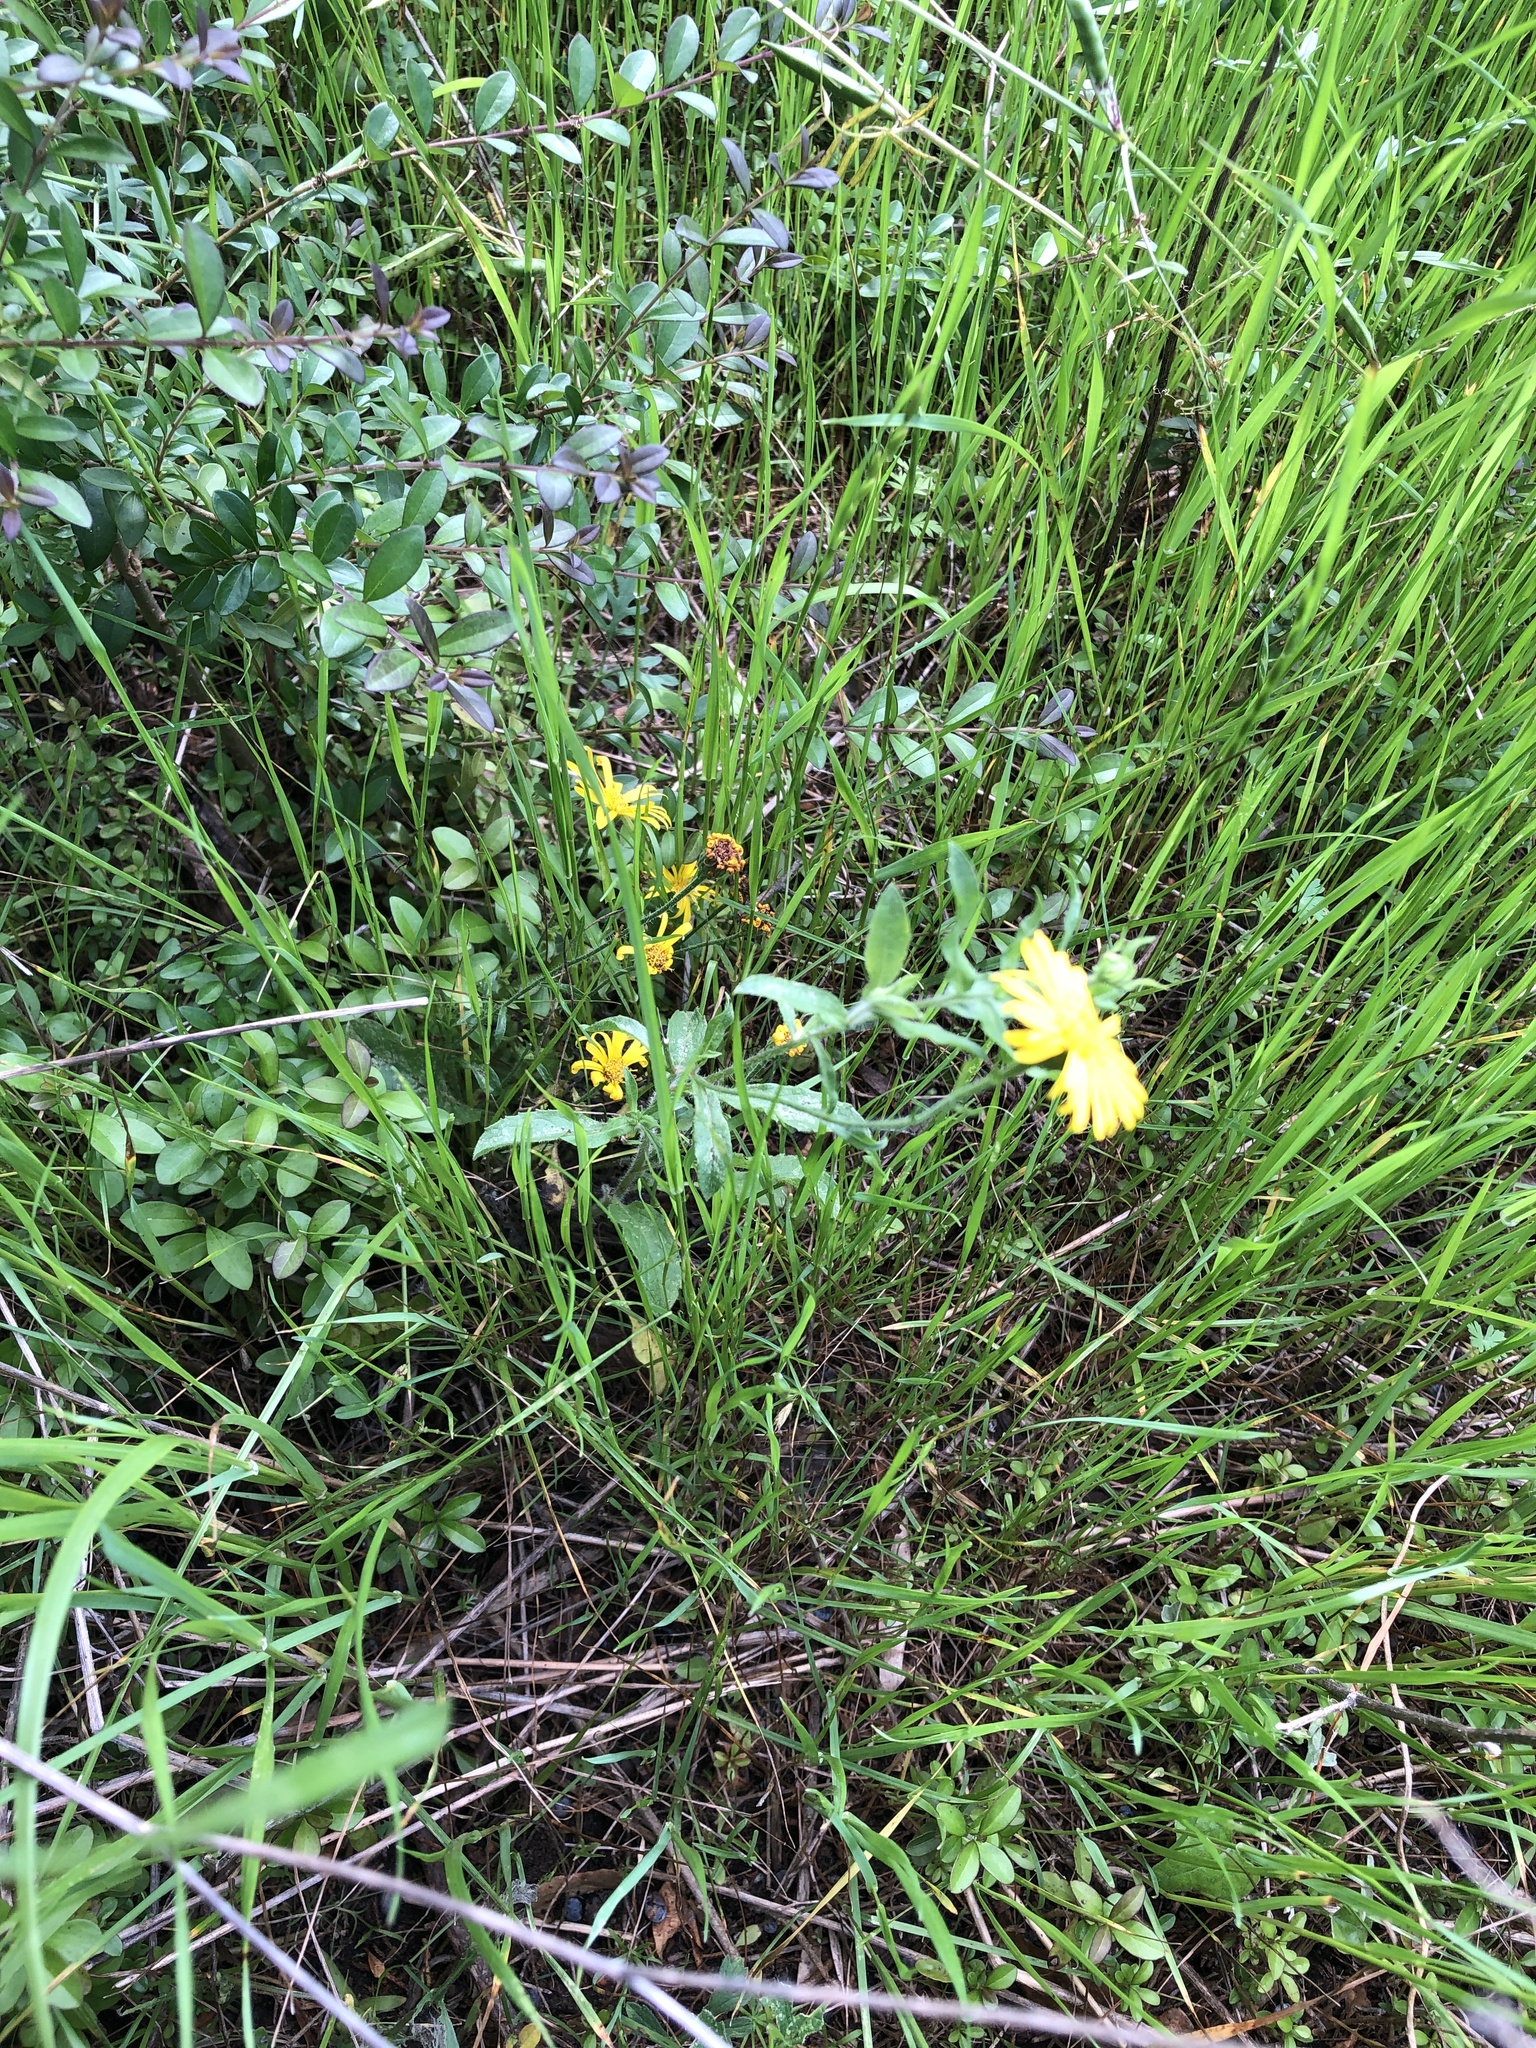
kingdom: Plantae
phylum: Tracheophyta
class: Magnoliopsida
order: Asterales
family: Asteraceae
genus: Heterotheca
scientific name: Heterotheca subaxillaris
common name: Camphorweed
